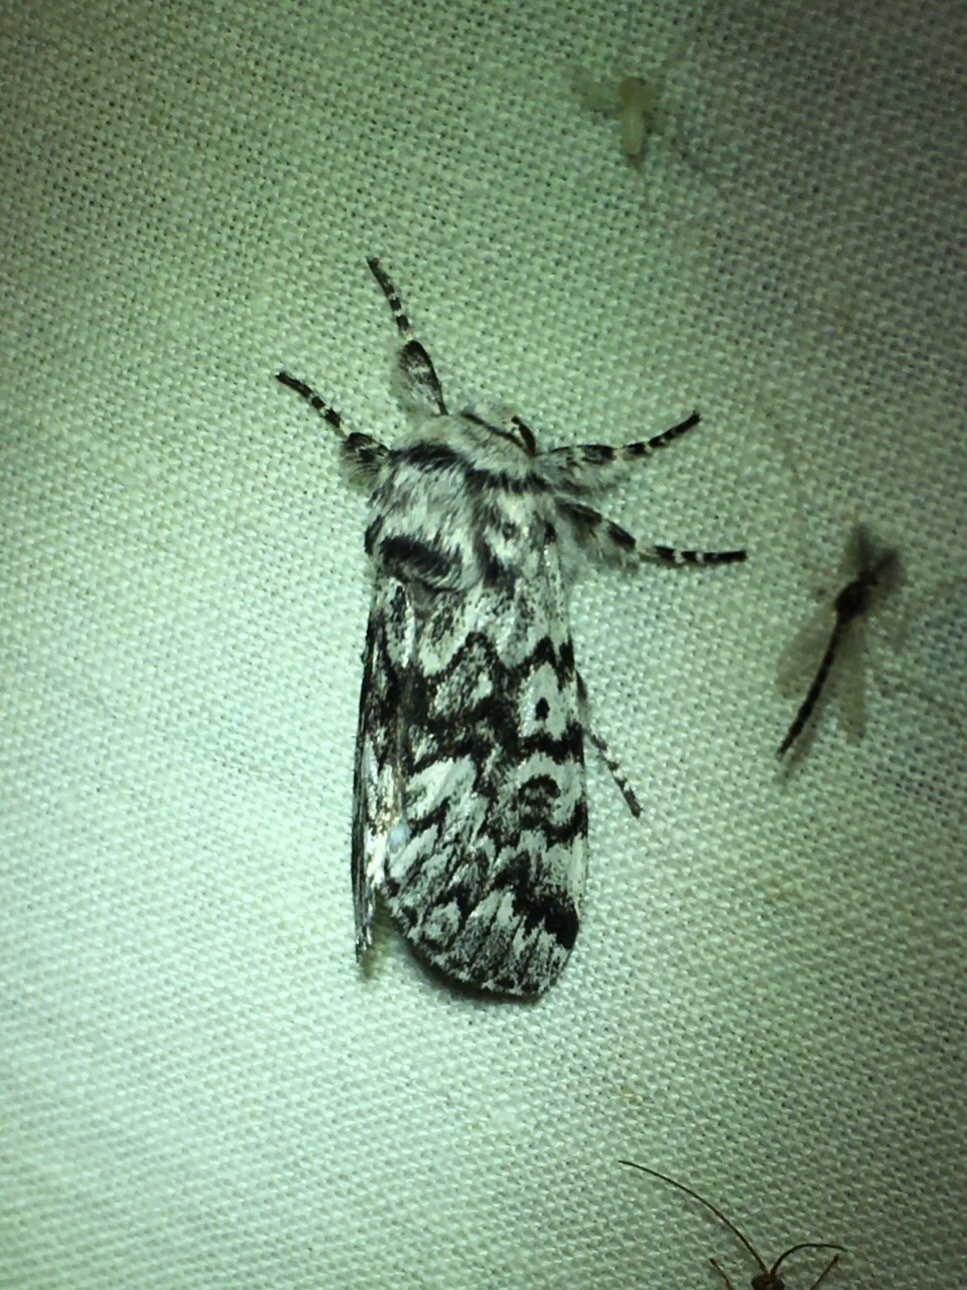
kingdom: Animalia
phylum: Arthropoda
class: Insecta
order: Lepidoptera
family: Noctuidae
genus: Panthea
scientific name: Panthea acronyctoides
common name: Black zigzag moth
